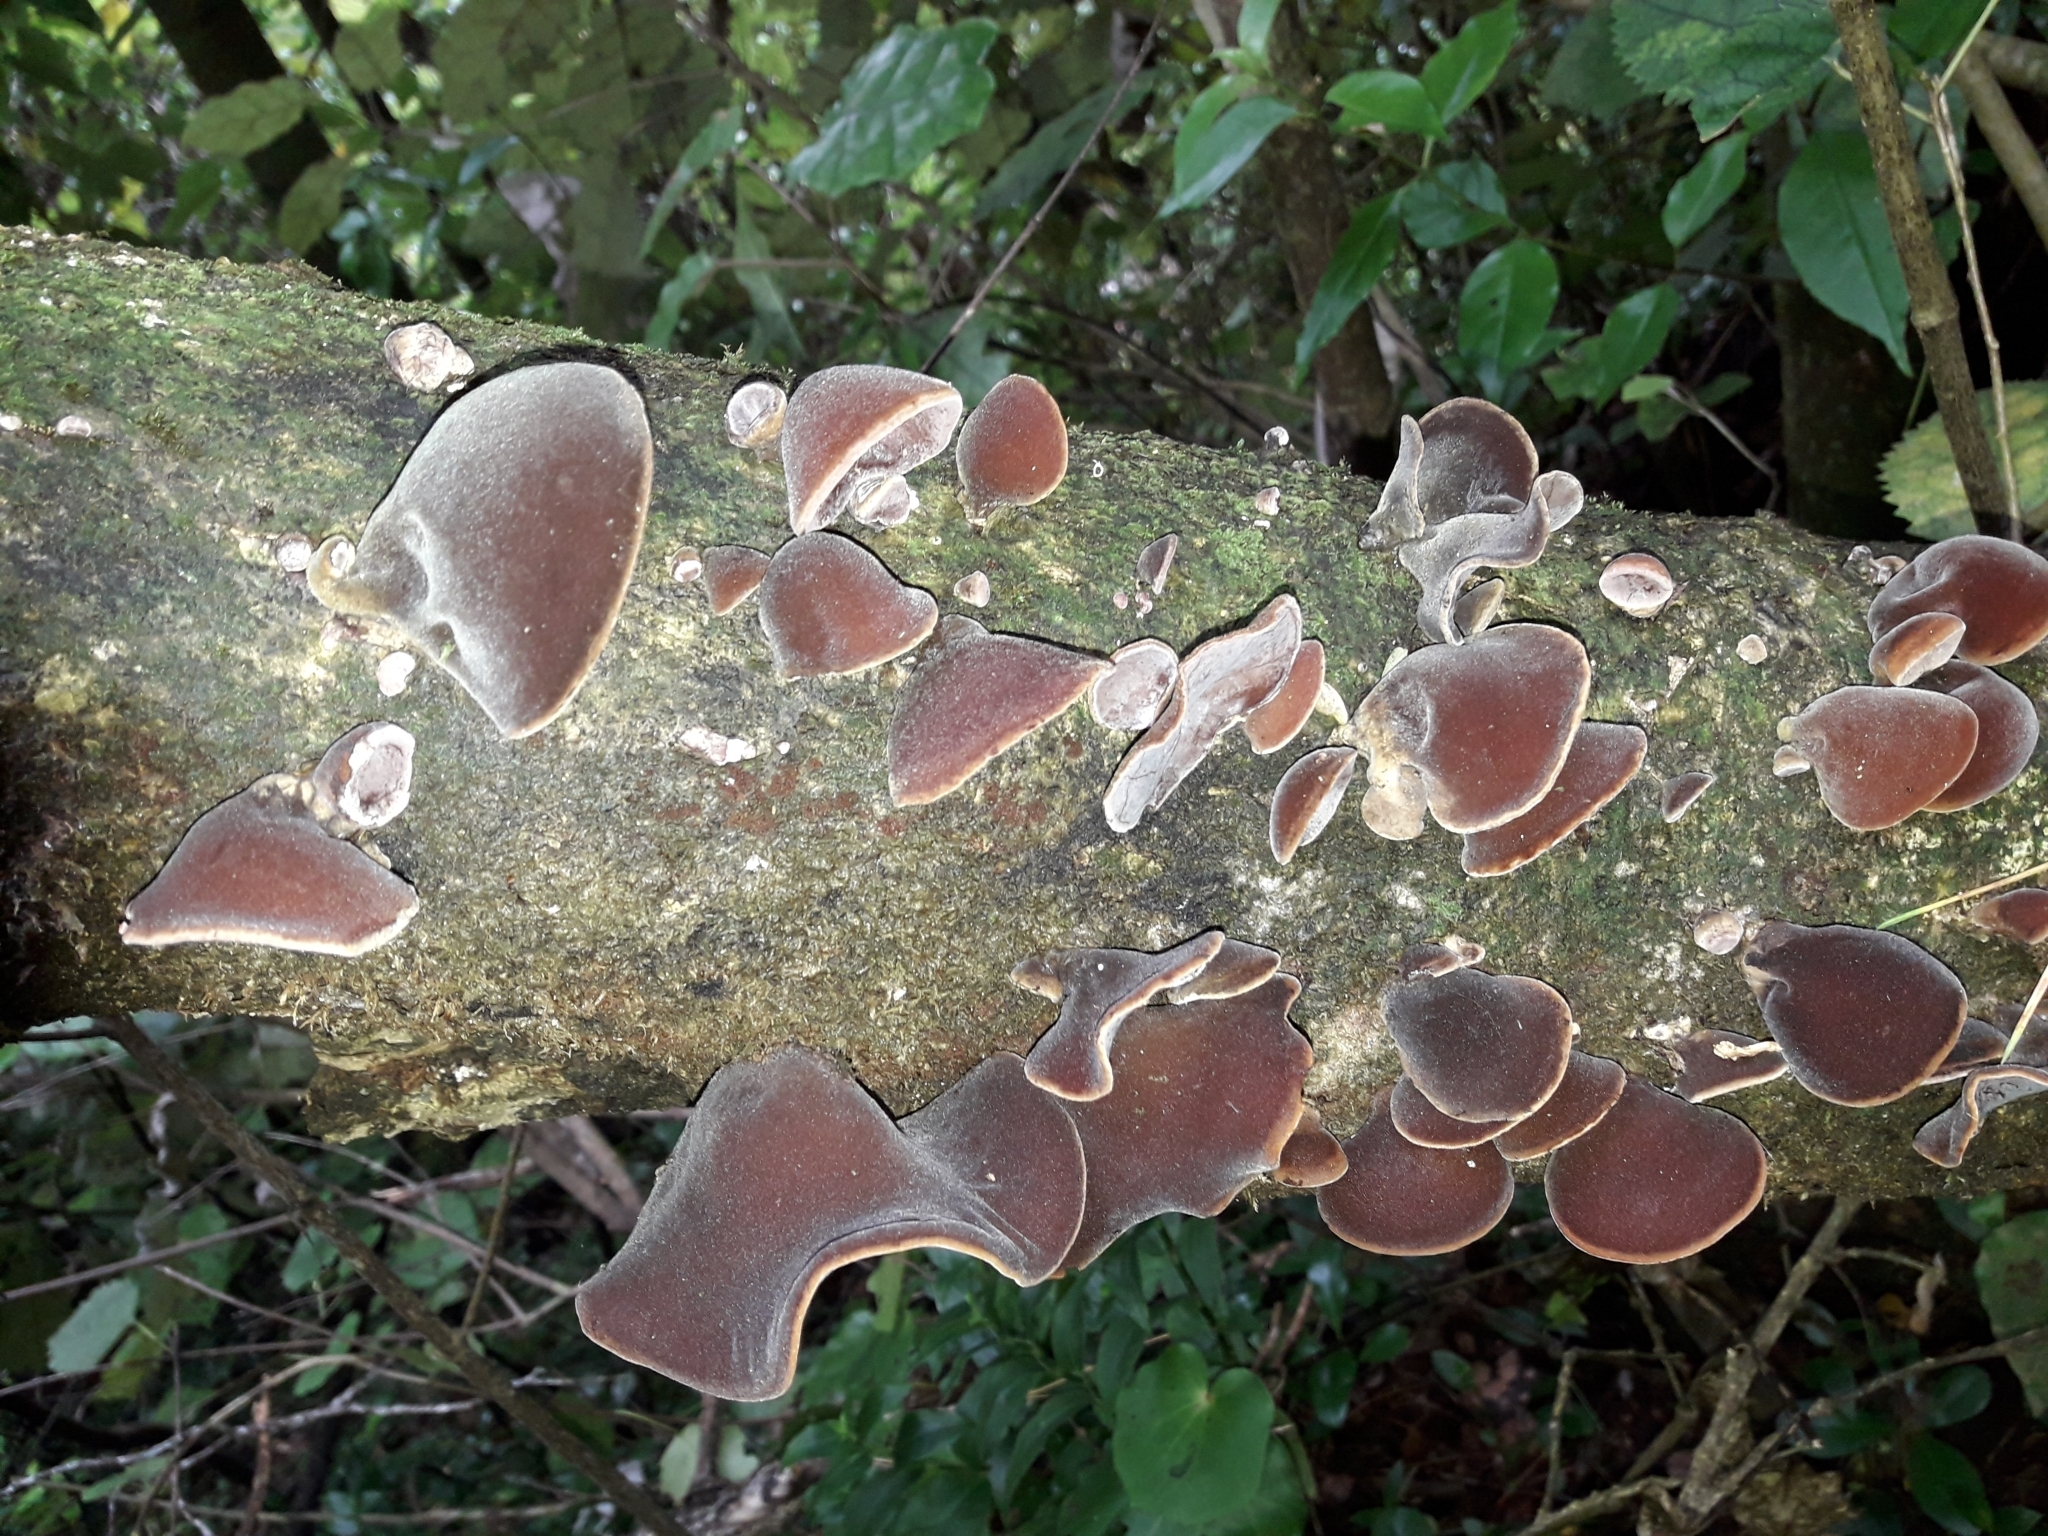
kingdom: Fungi
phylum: Basidiomycota
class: Agaricomycetes
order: Auriculariales
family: Auriculariaceae
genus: Auricularia
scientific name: Auricularia cornea
